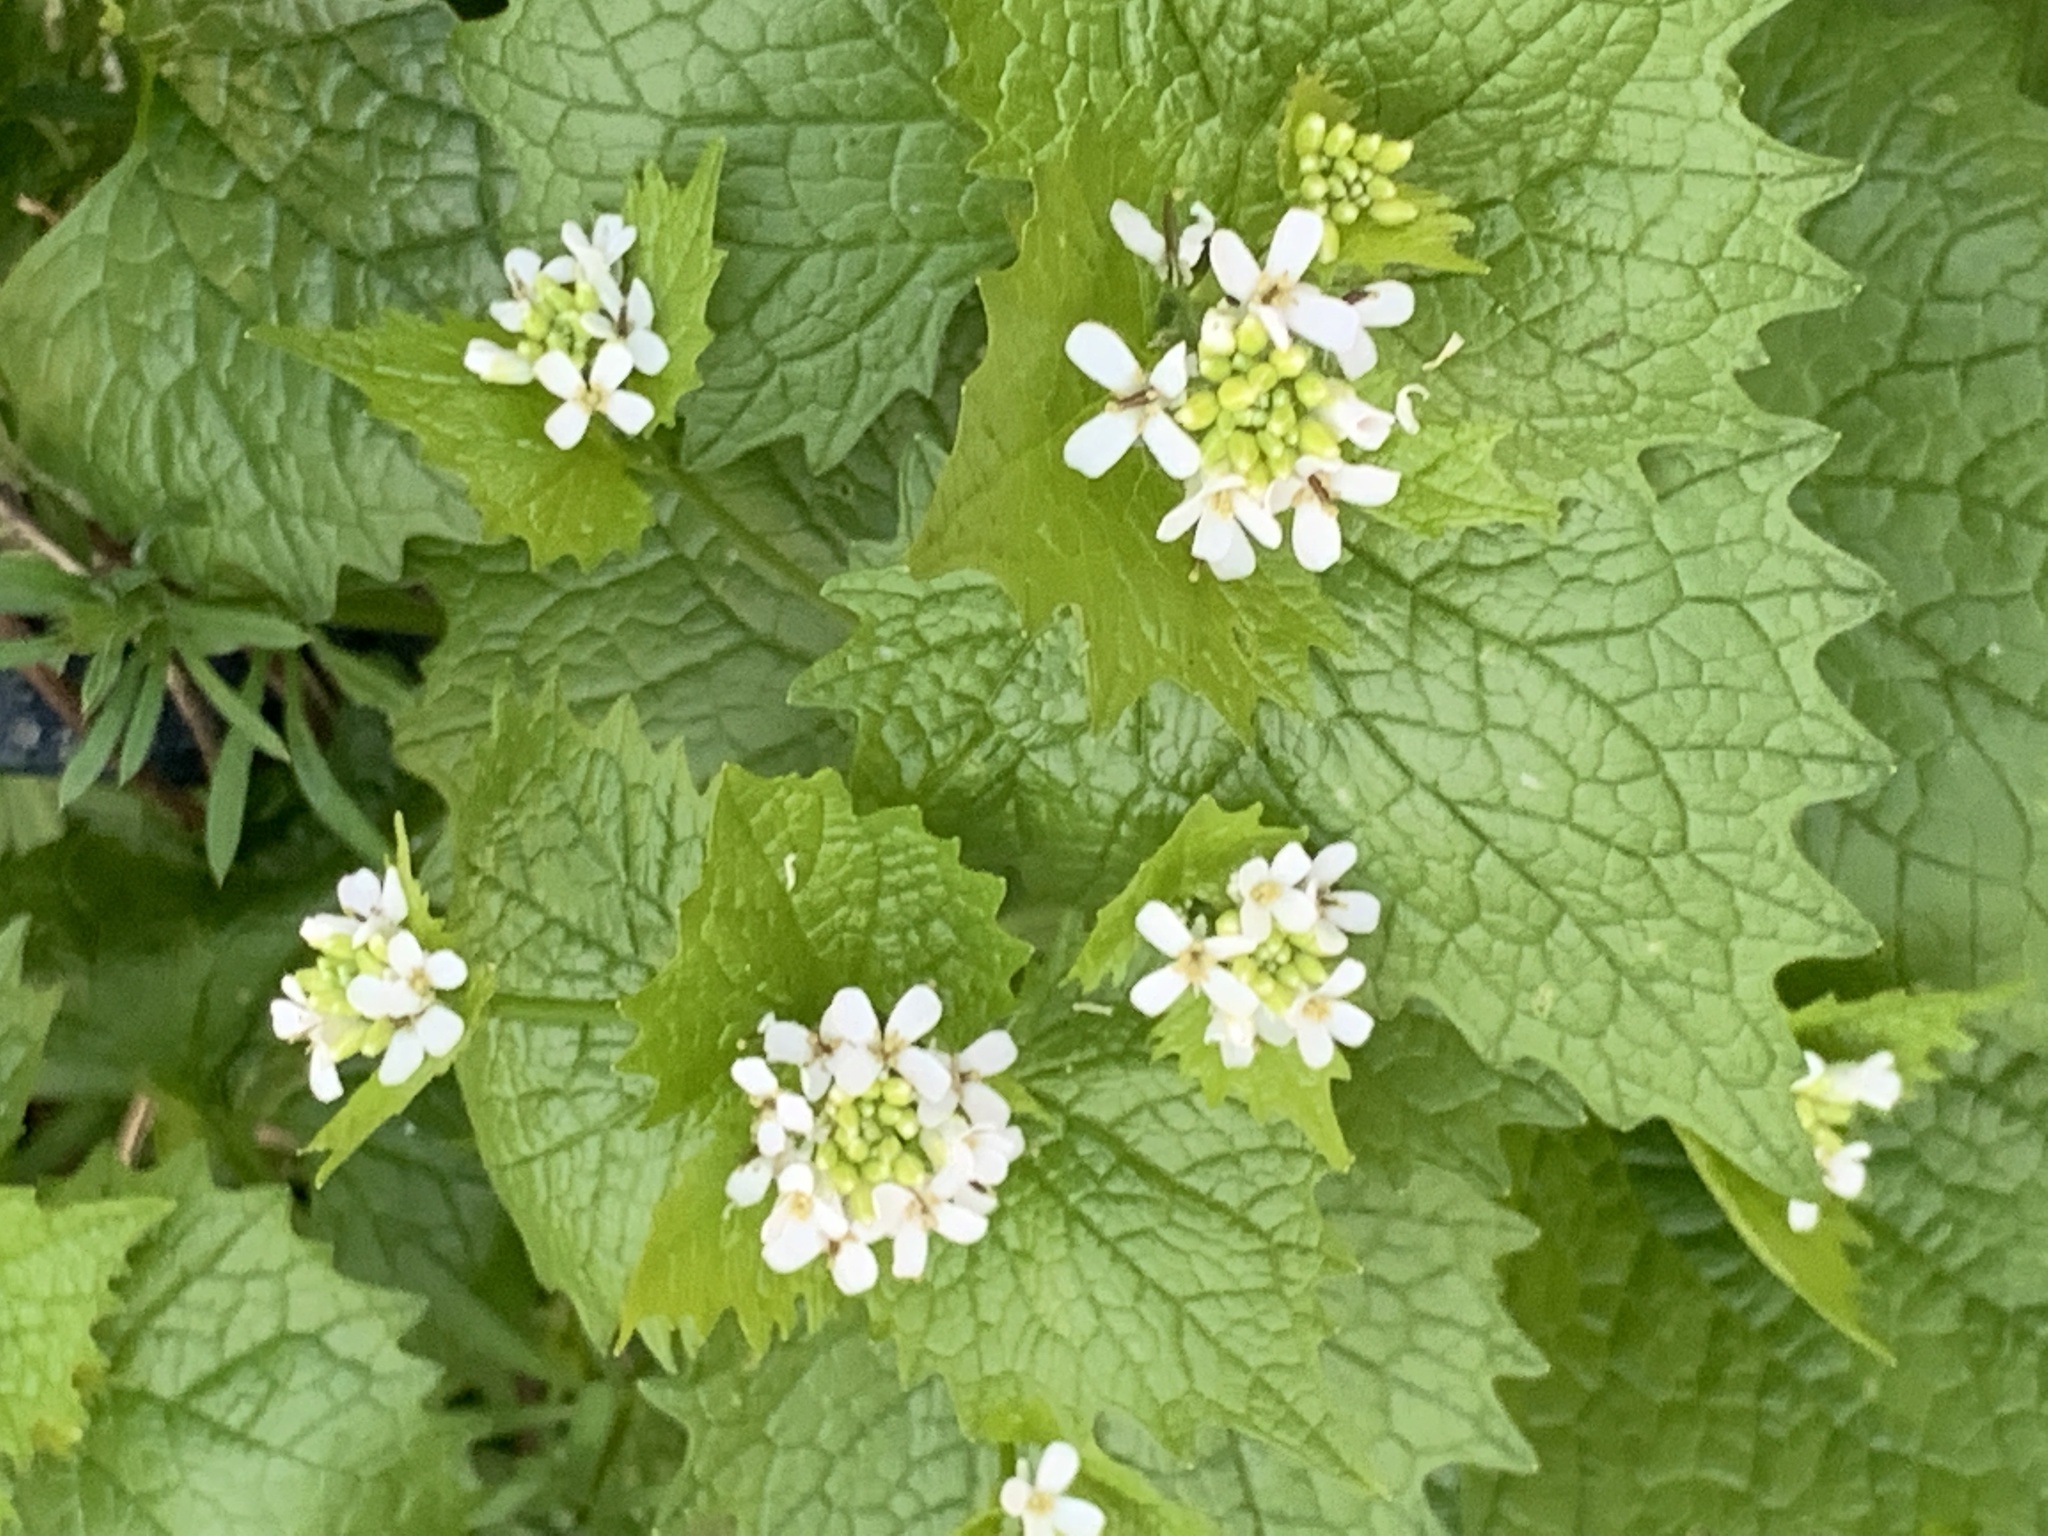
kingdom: Plantae
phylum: Tracheophyta
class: Magnoliopsida
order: Brassicales
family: Brassicaceae
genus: Alliaria
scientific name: Alliaria petiolata
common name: Garlic mustard
